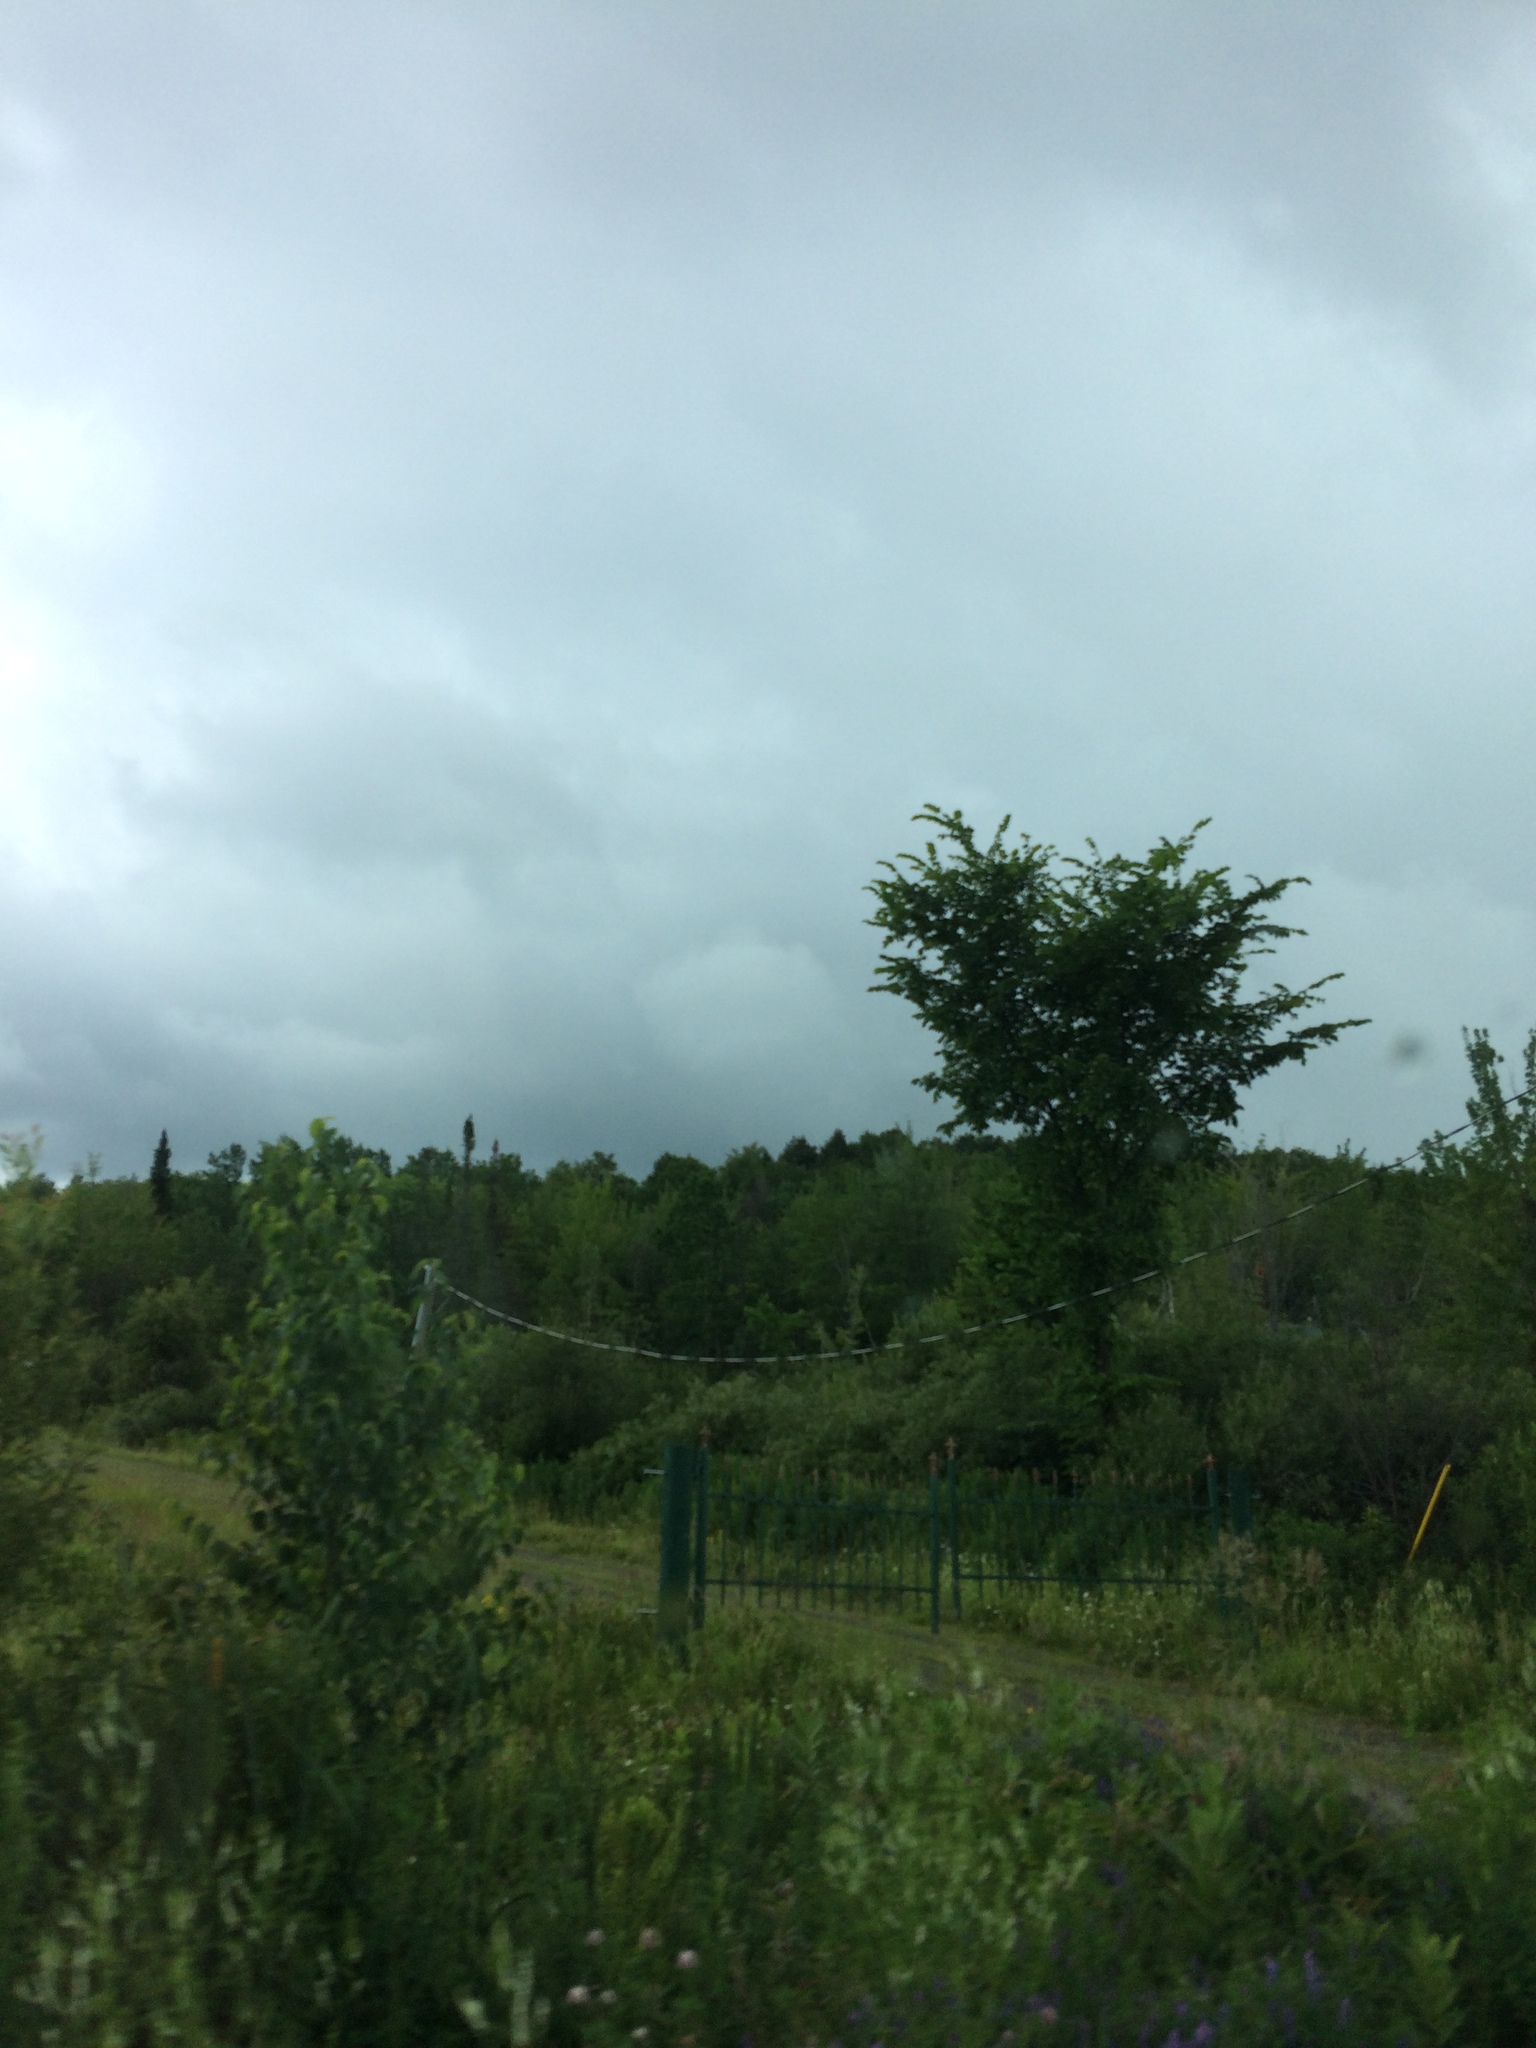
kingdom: Plantae
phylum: Tracheophyta
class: Magnoliopsida
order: Rosales
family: Ulmaceae
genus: Ulmus
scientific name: Ulmus americana
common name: American elm
